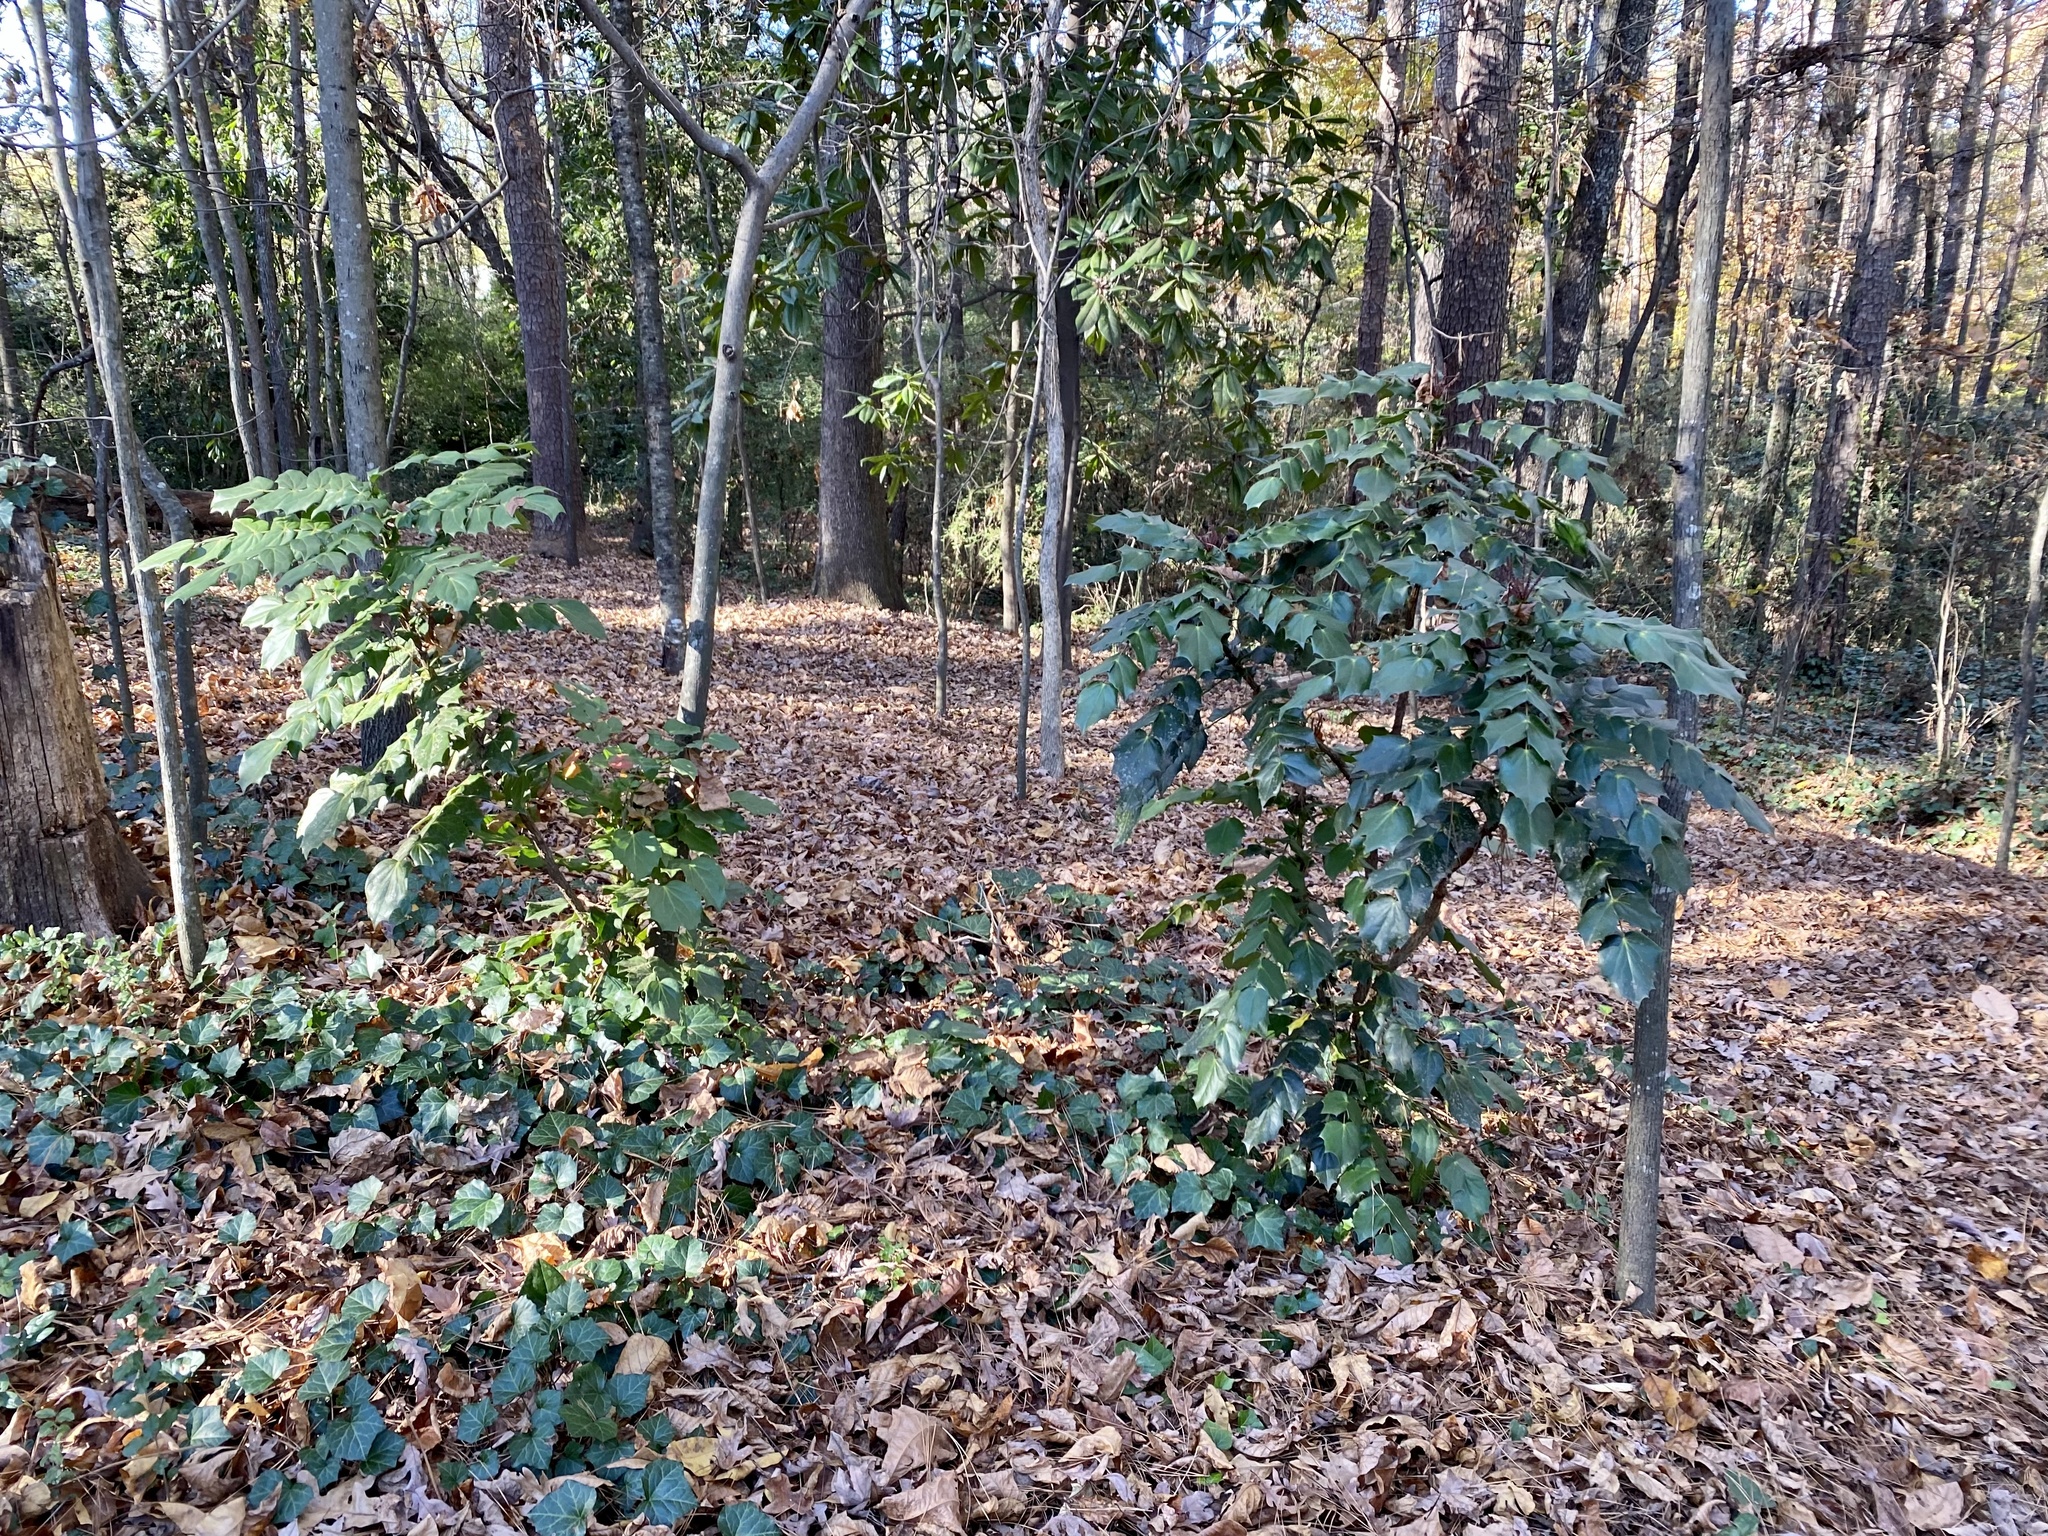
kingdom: Plantae
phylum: Tracheophyta
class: Magnoliopsida
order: Ranunculales
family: Berberidaceae
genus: Mahonia
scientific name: Mahonia bealei
